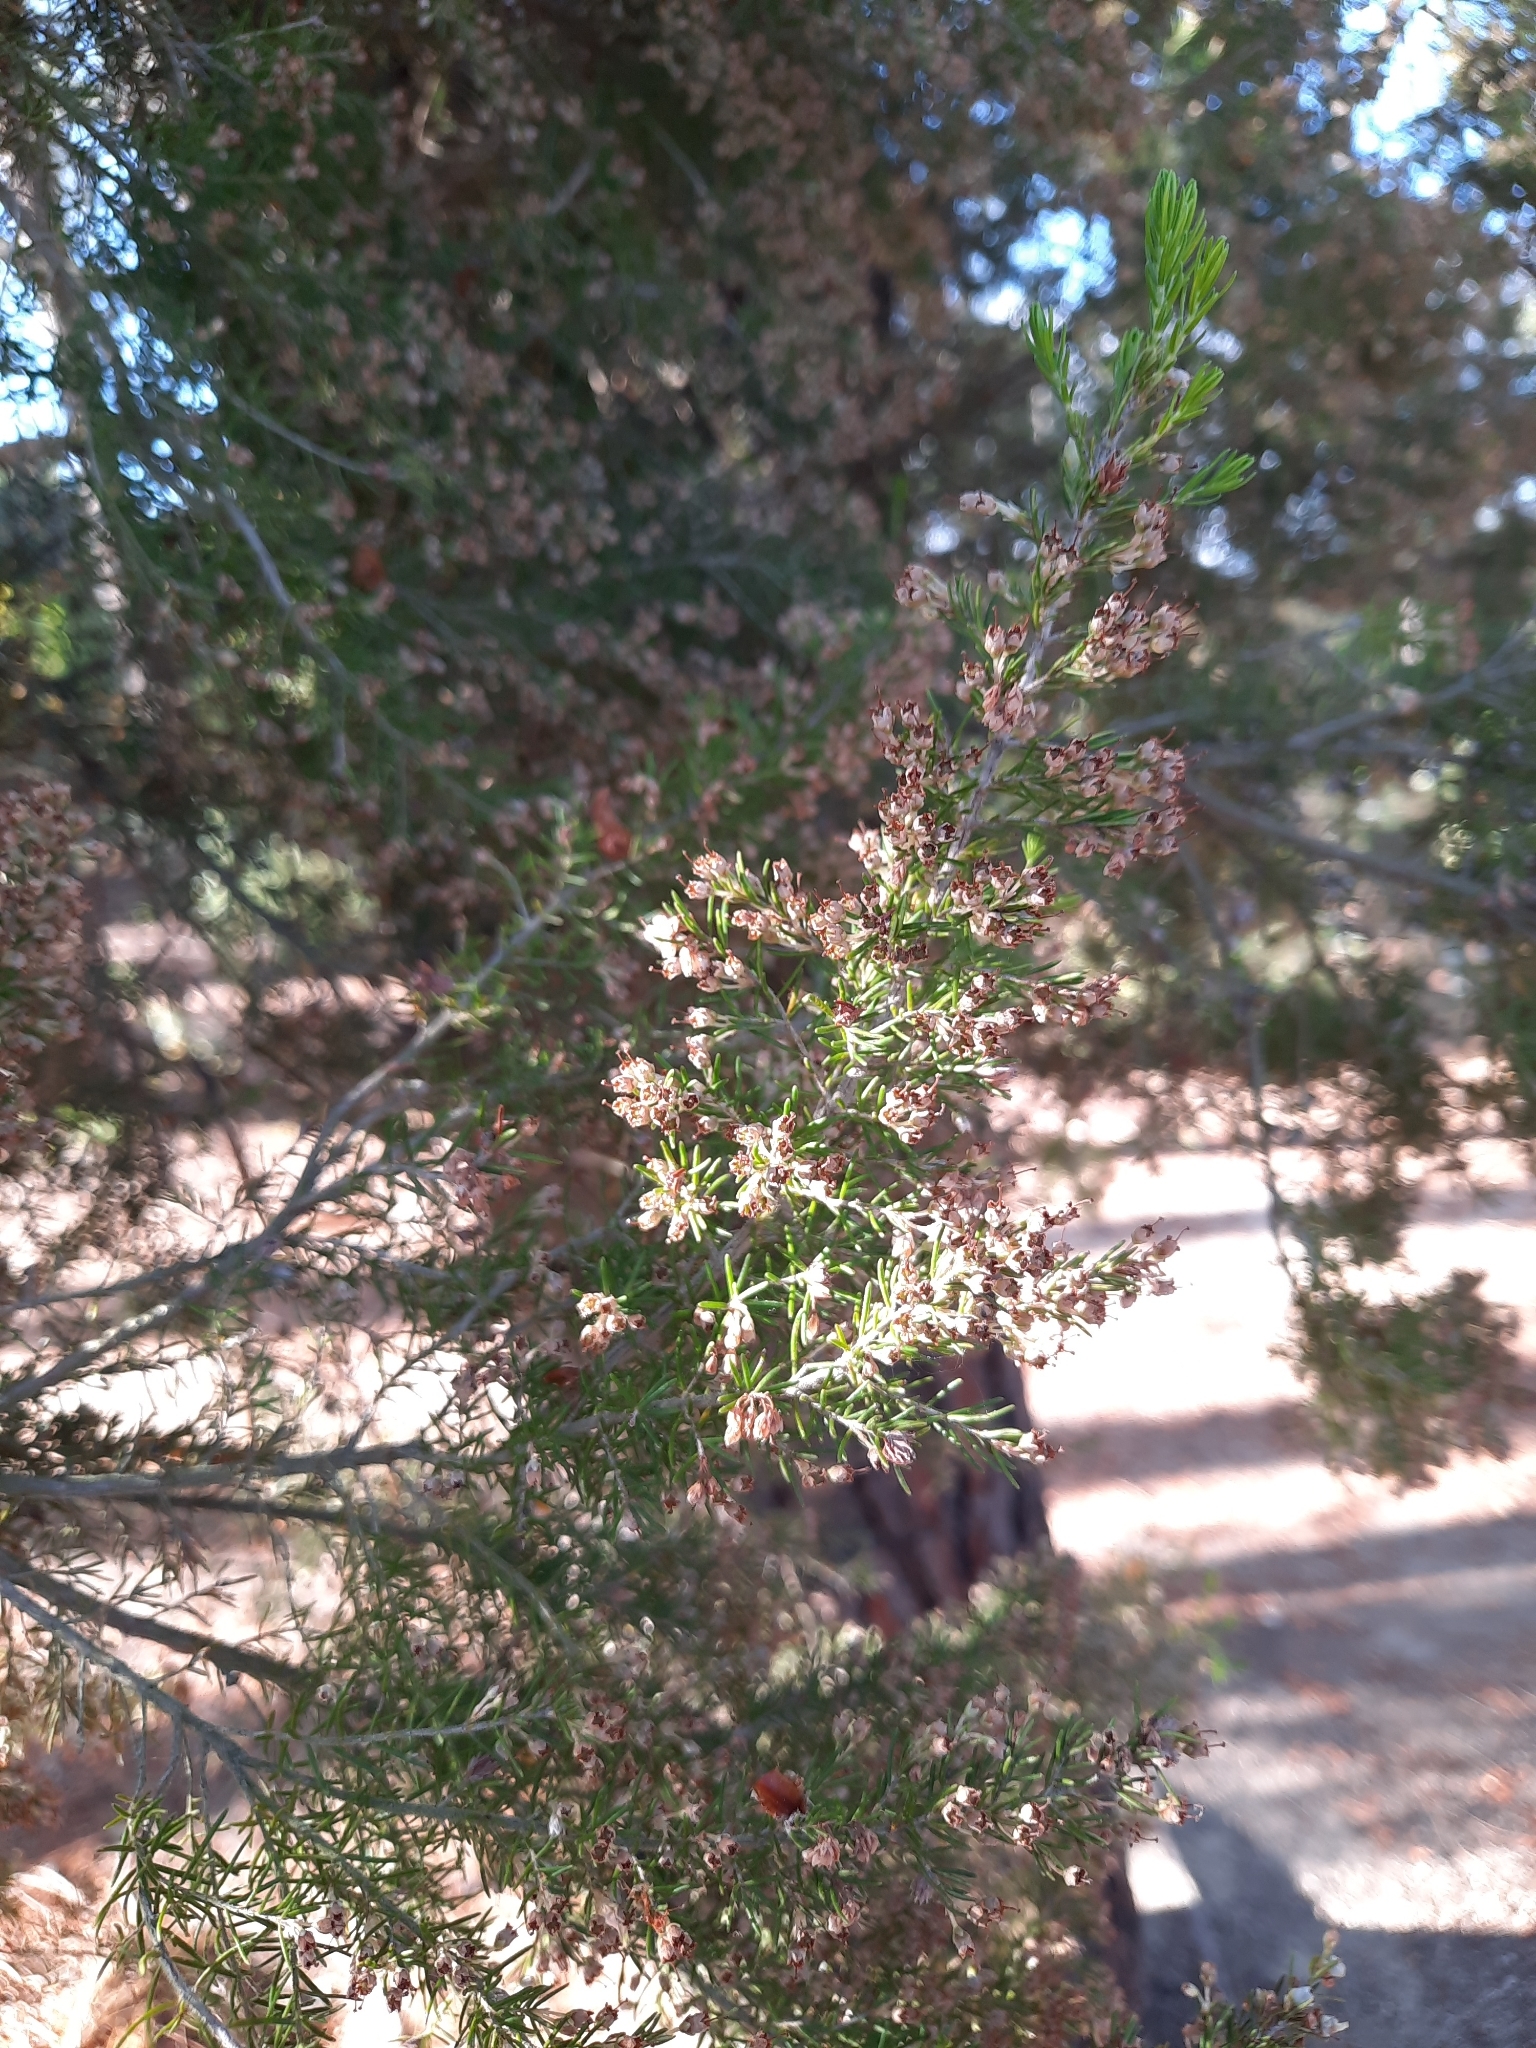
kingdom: Plantae
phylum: Tracheophyta
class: Magnoliopsida
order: Ericales
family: Ericaceae
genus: Erica
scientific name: Erica arborea
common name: Tree heath
